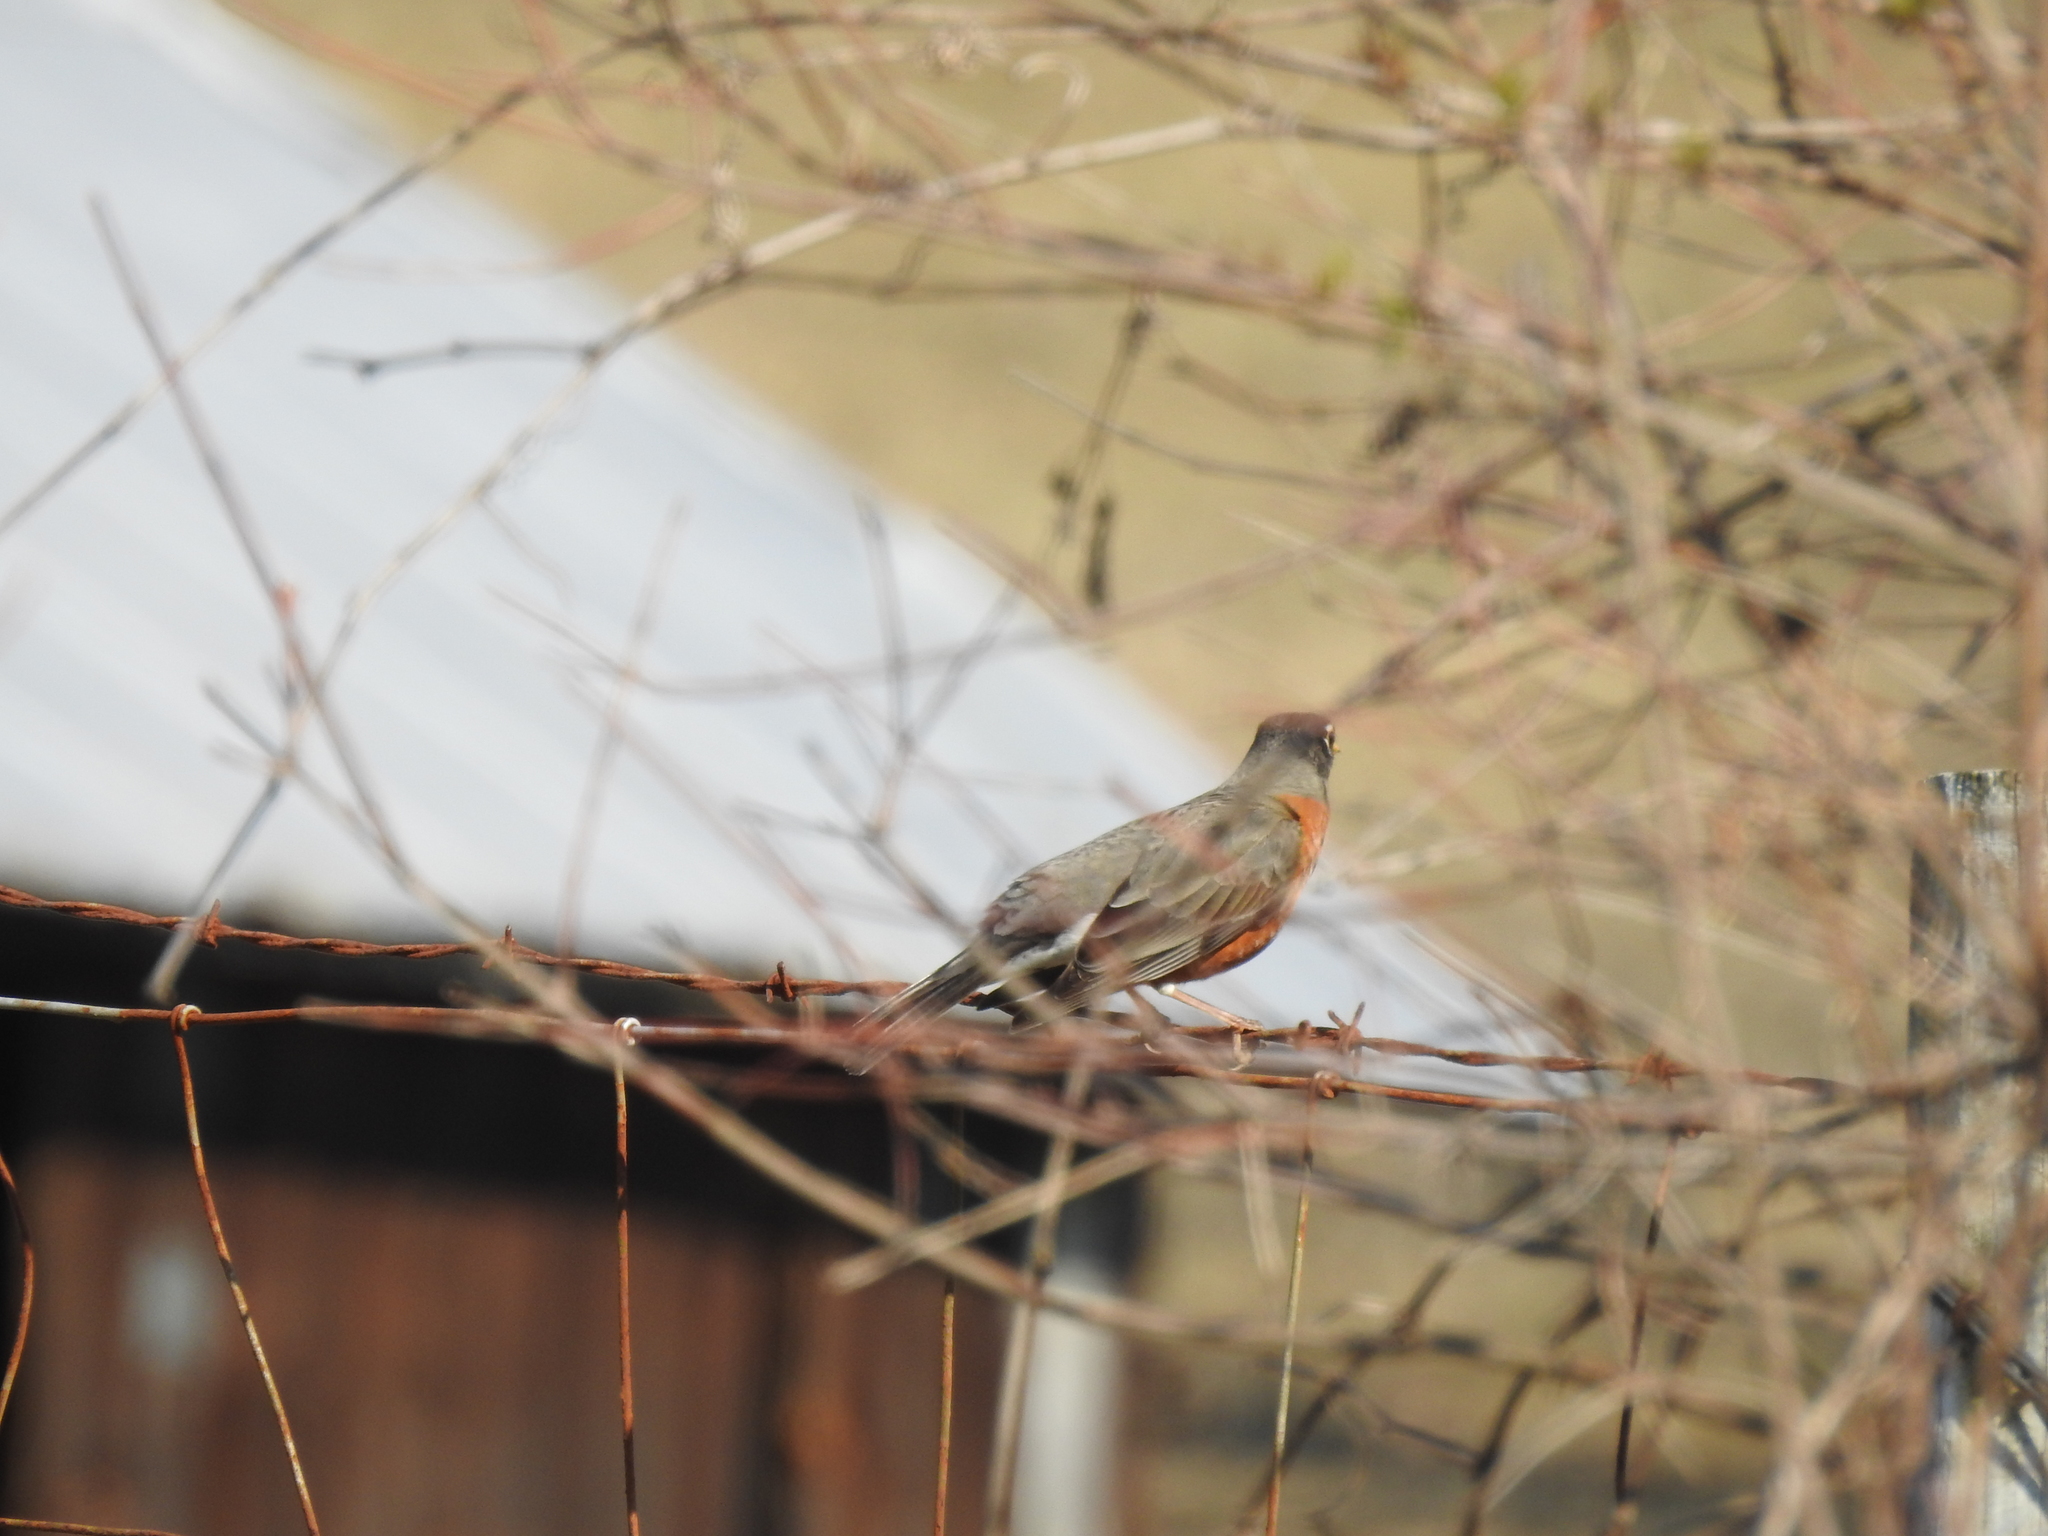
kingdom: Animalia
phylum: Chordata
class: Aves
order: Passeriformes
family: Turdidae
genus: Turdus
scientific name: Turdus migratorius
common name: American robin
